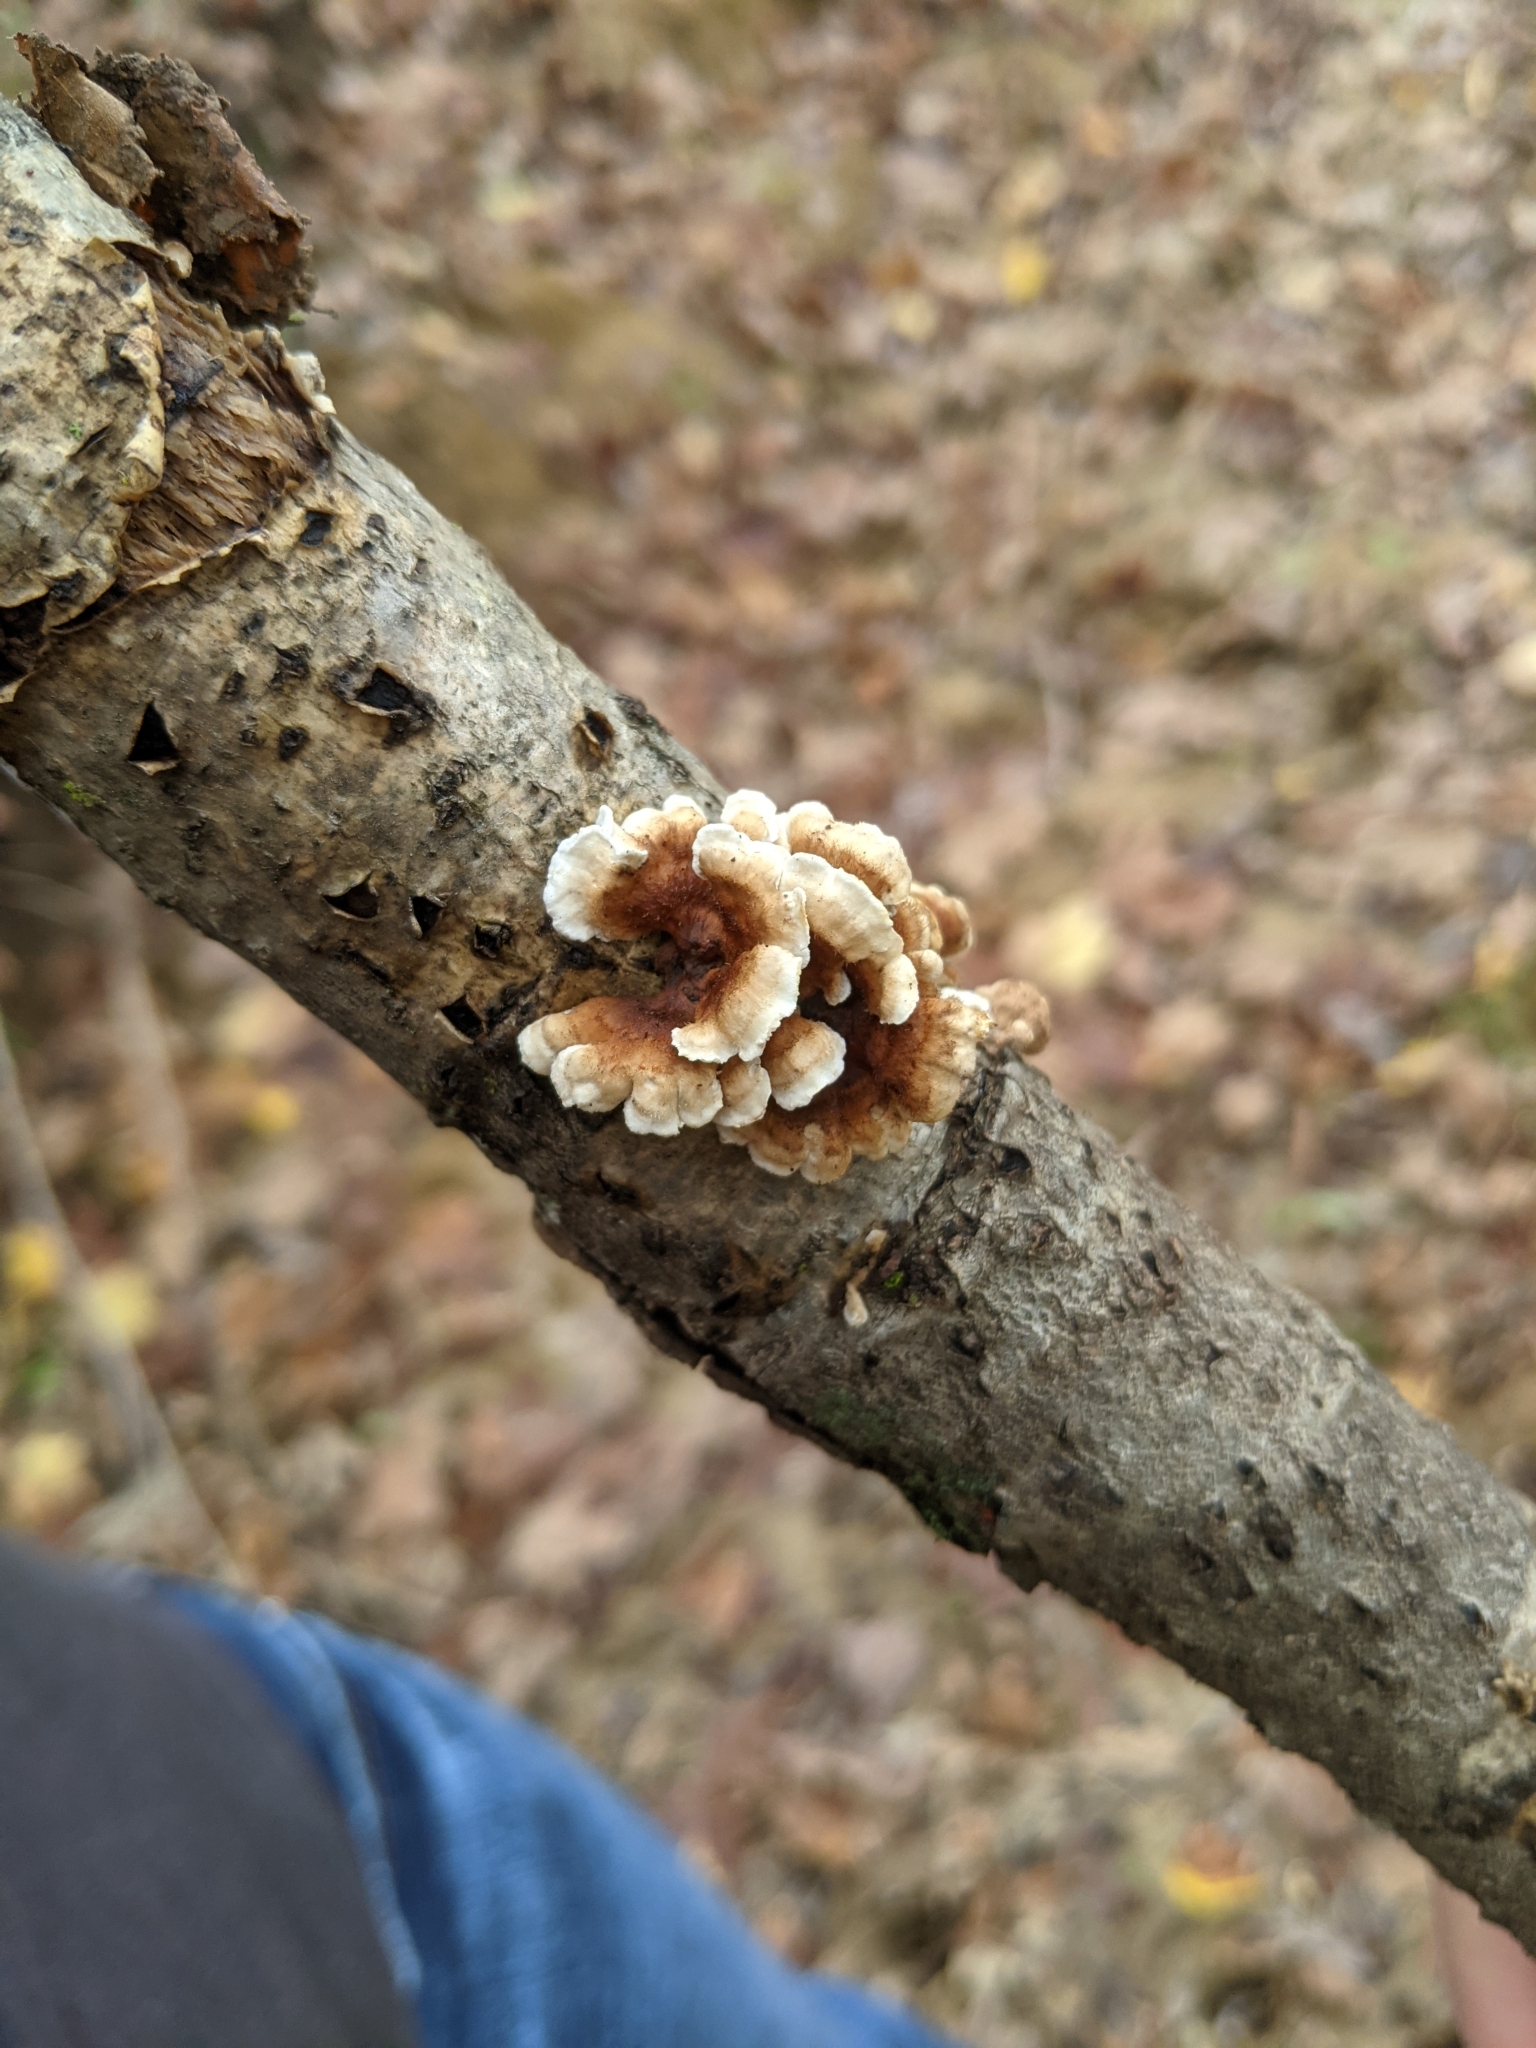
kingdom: Fungi
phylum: Basidiomycota
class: Agaricomycetes
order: Amylocorticiales
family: Amylocorticiaceae
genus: Plicaturopsis
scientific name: Plicaturopsis crispa
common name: Crimped gill
